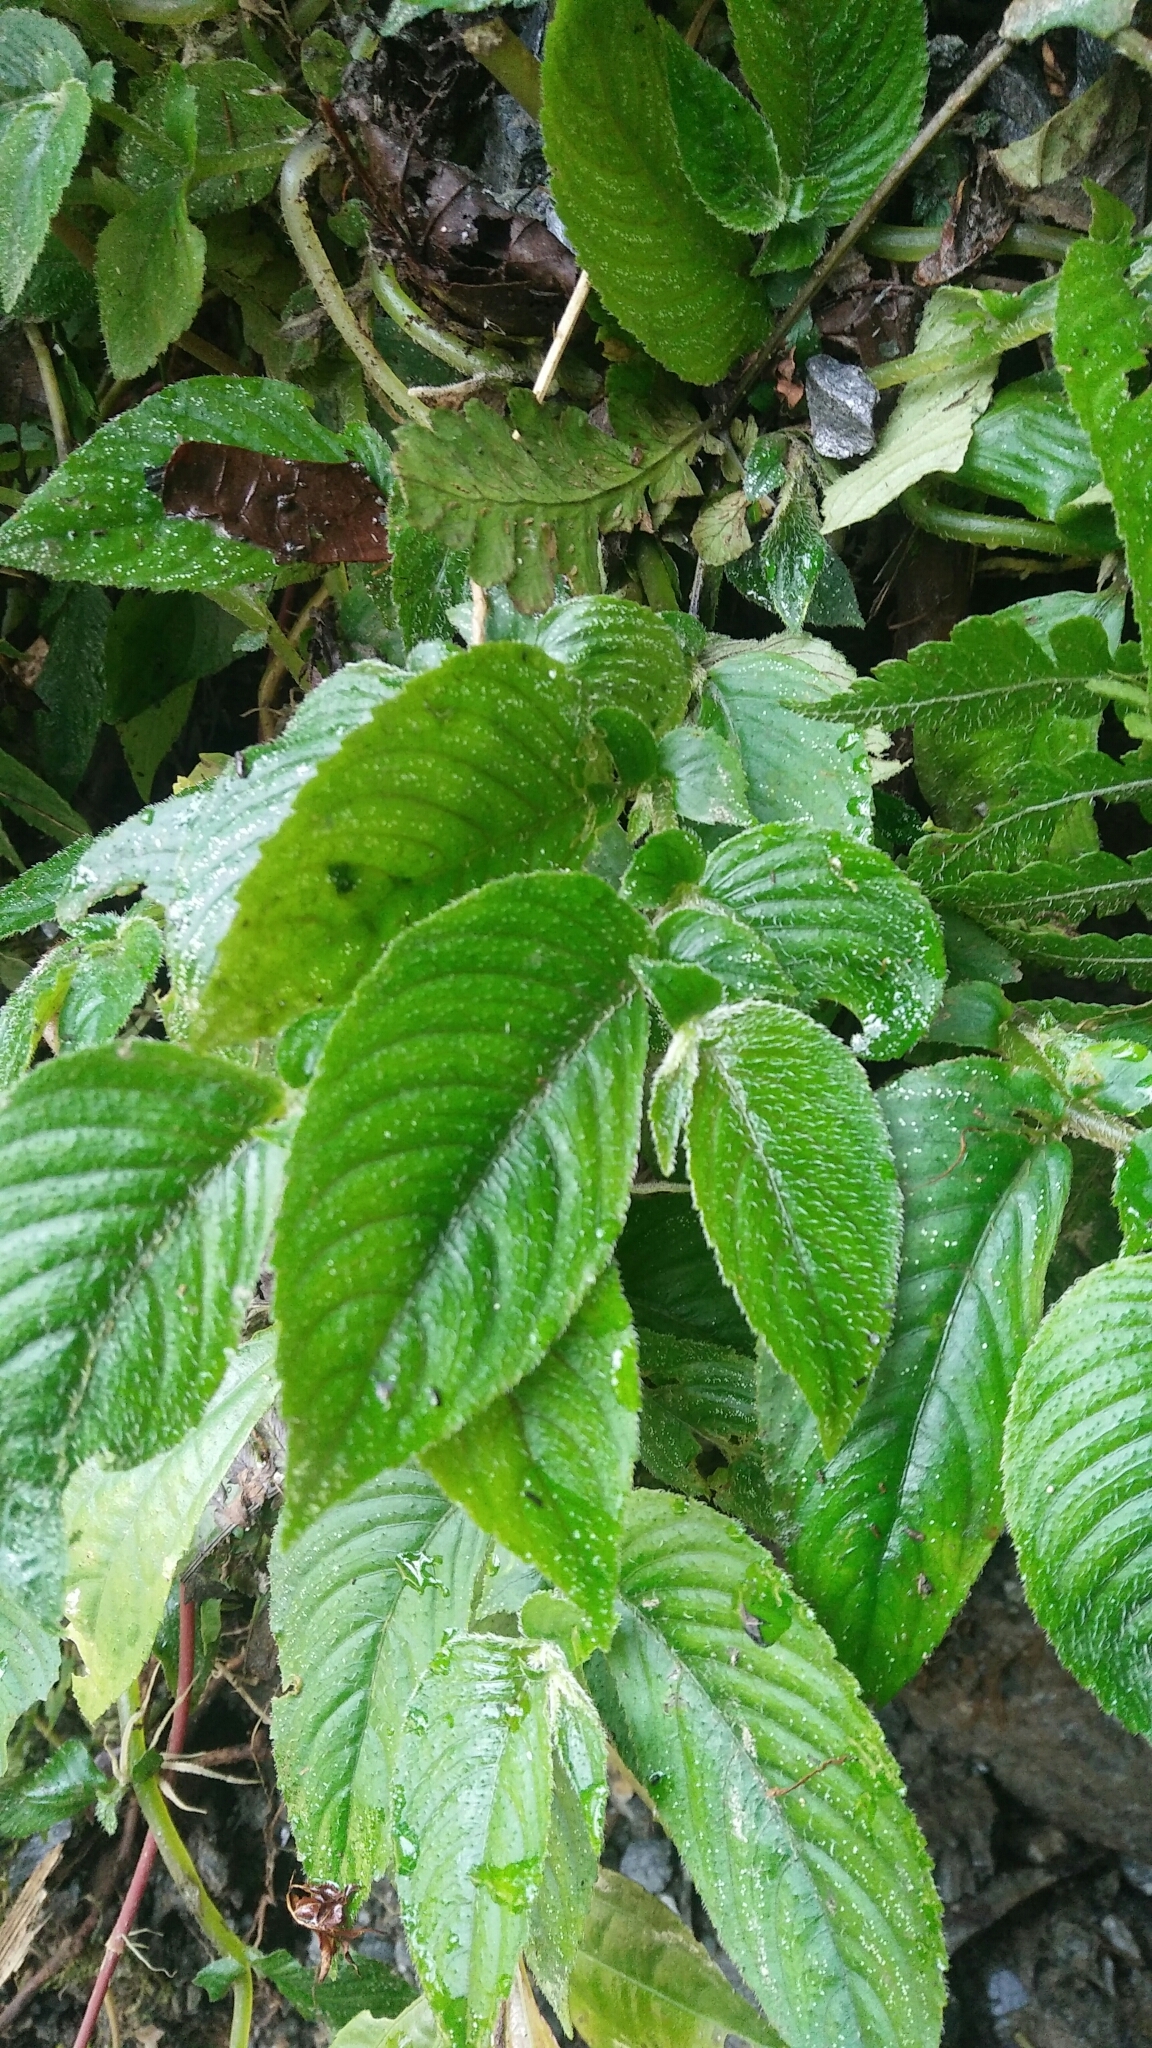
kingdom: Plantae
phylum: Tracheophyta
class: Magnoliopsida
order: Lamiales
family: Gesneriaceae
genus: Whytockia
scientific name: Whytockia sasakii
